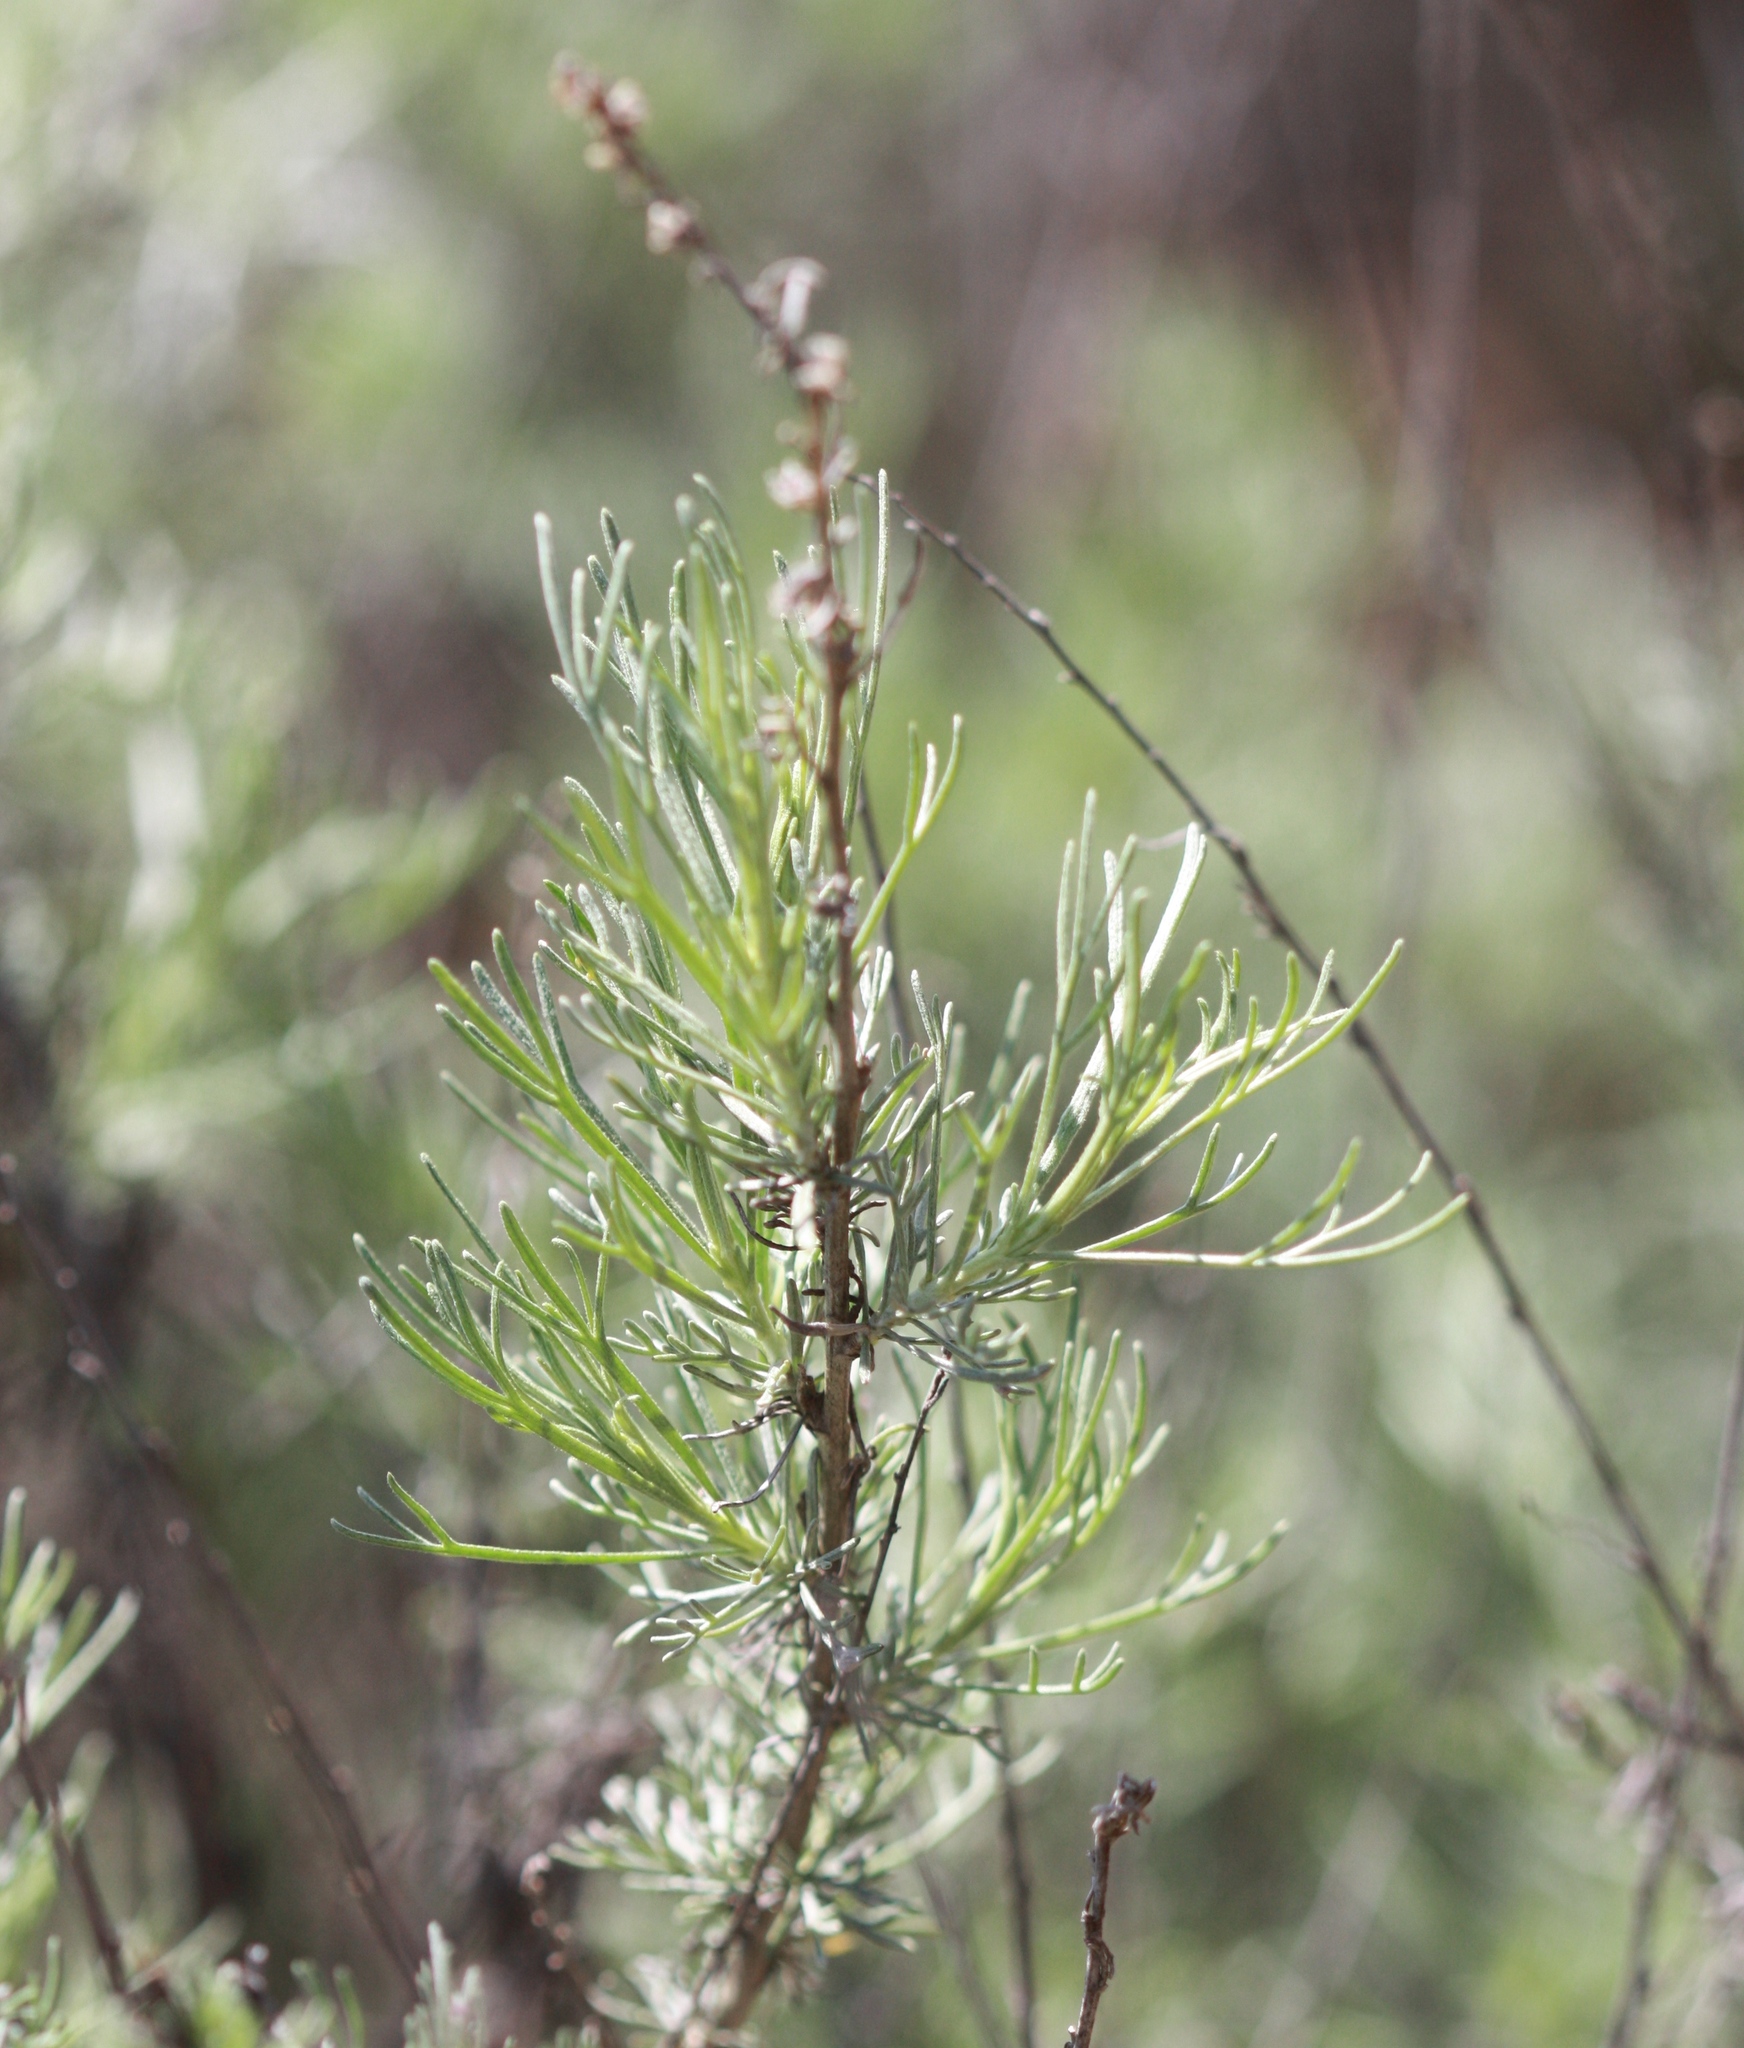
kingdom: Plantae
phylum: Tracheophyta
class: Magnoliopsida
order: Asterales
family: Asteraceae
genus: Artemisia
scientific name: Artemisia californica
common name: California sagebrush
